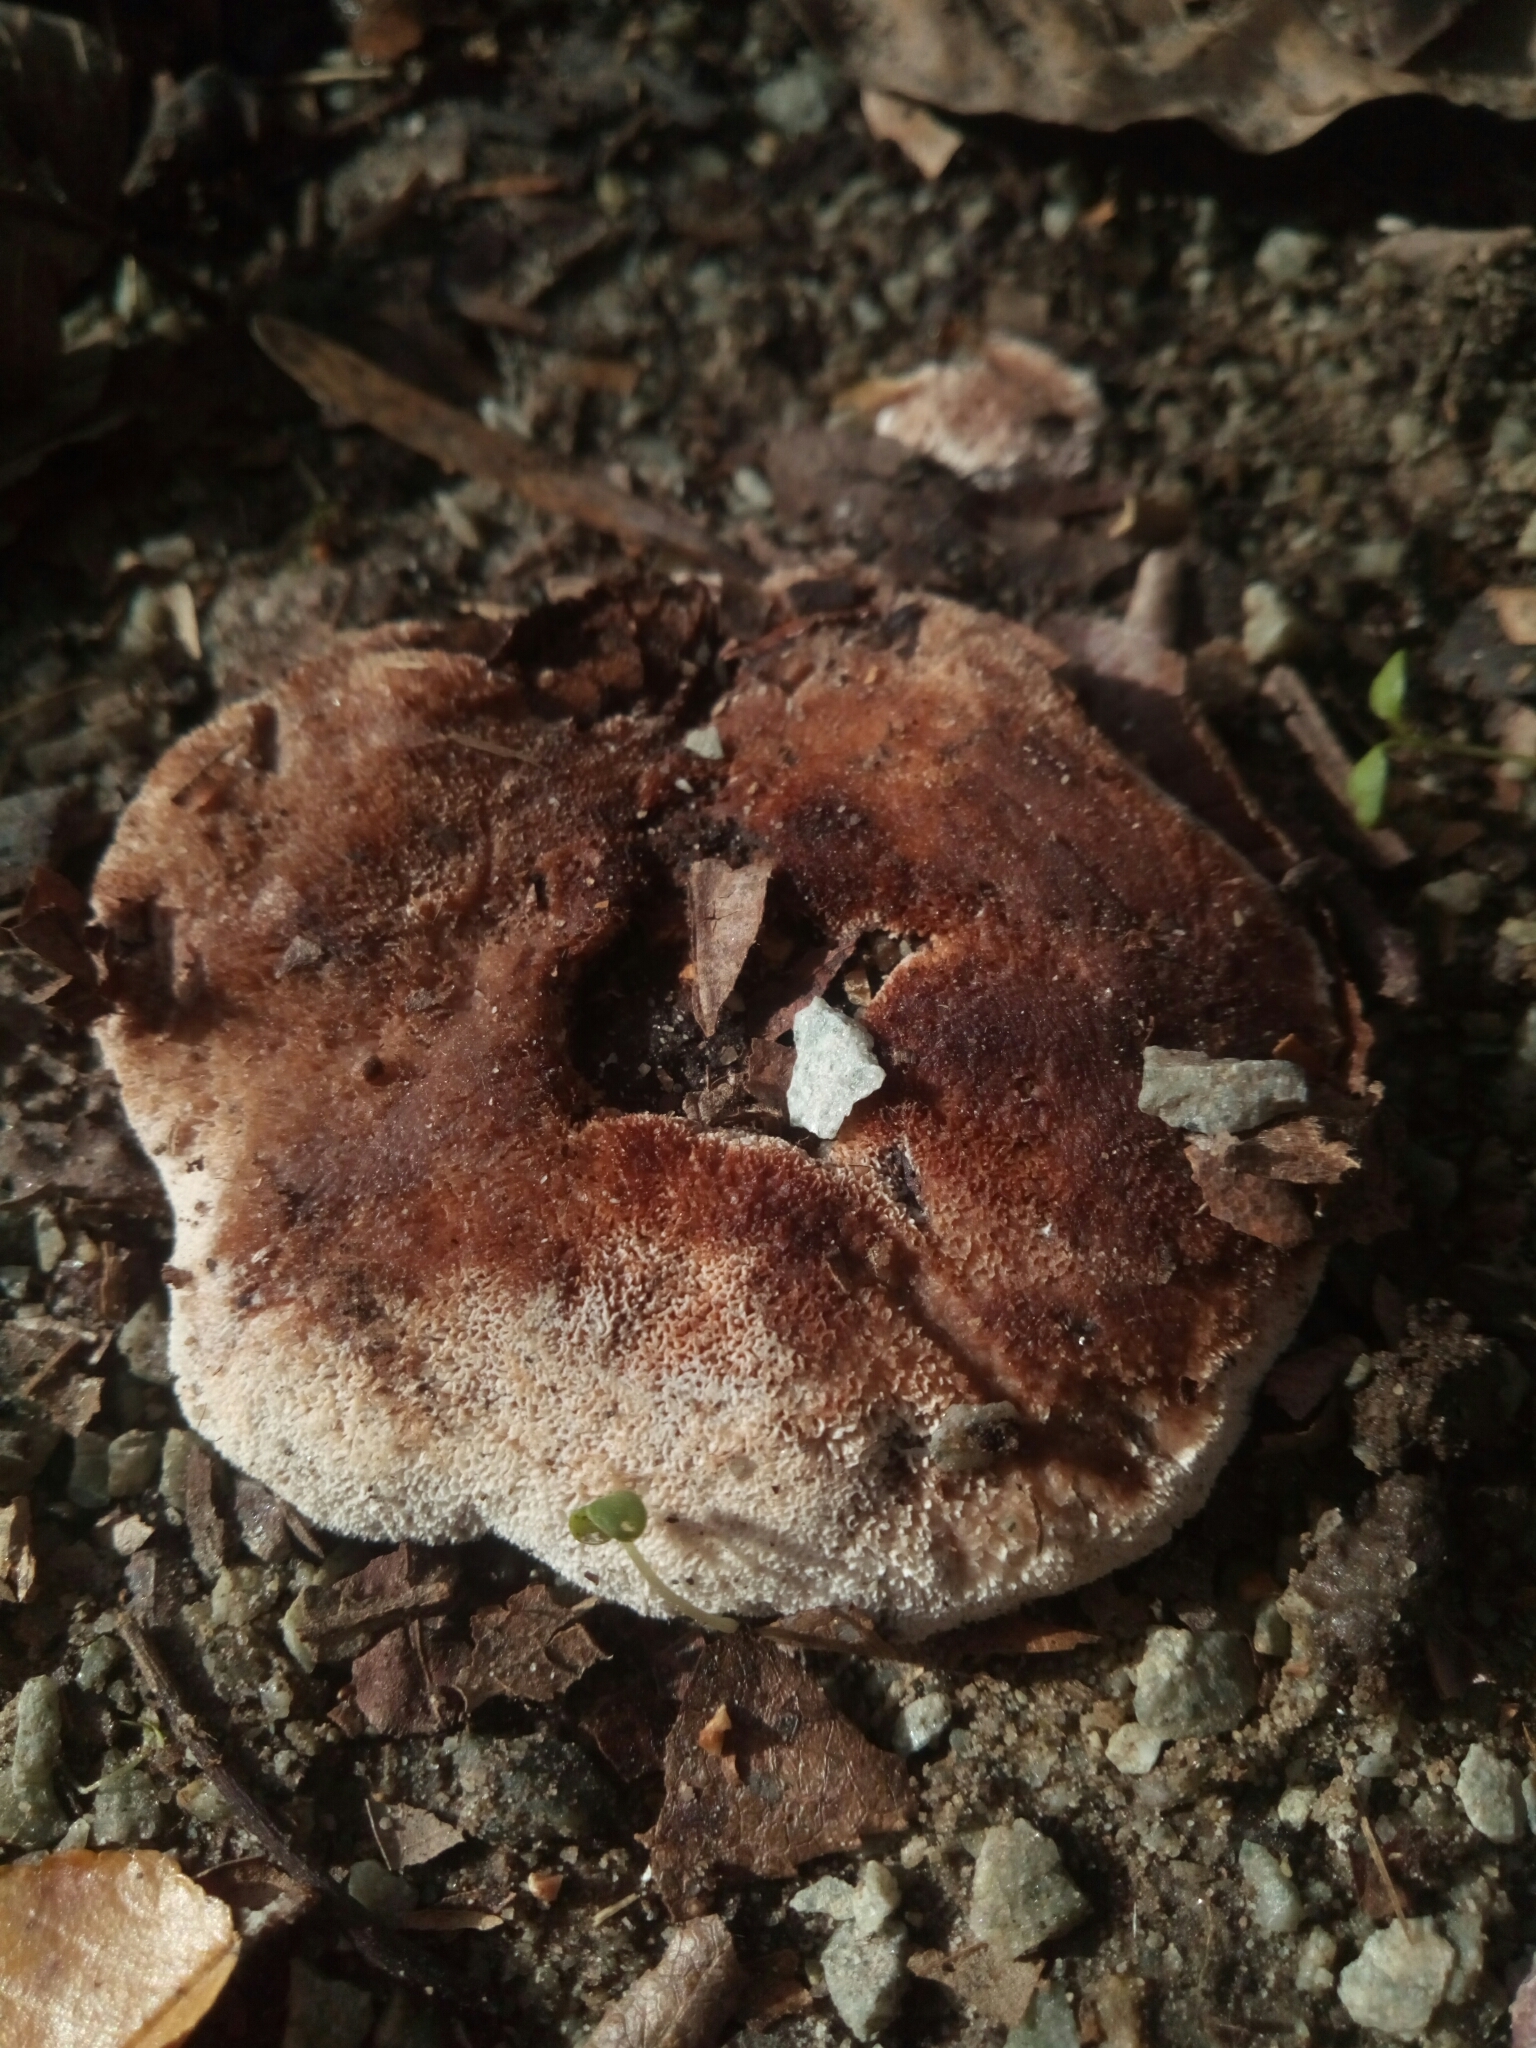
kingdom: Fungi
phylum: Basidiomycota
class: Agaricomycetes
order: Polyporales
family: Podoscyphaceae
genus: Abortiporus
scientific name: Abortiporus biennis
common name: Blushing rosette
